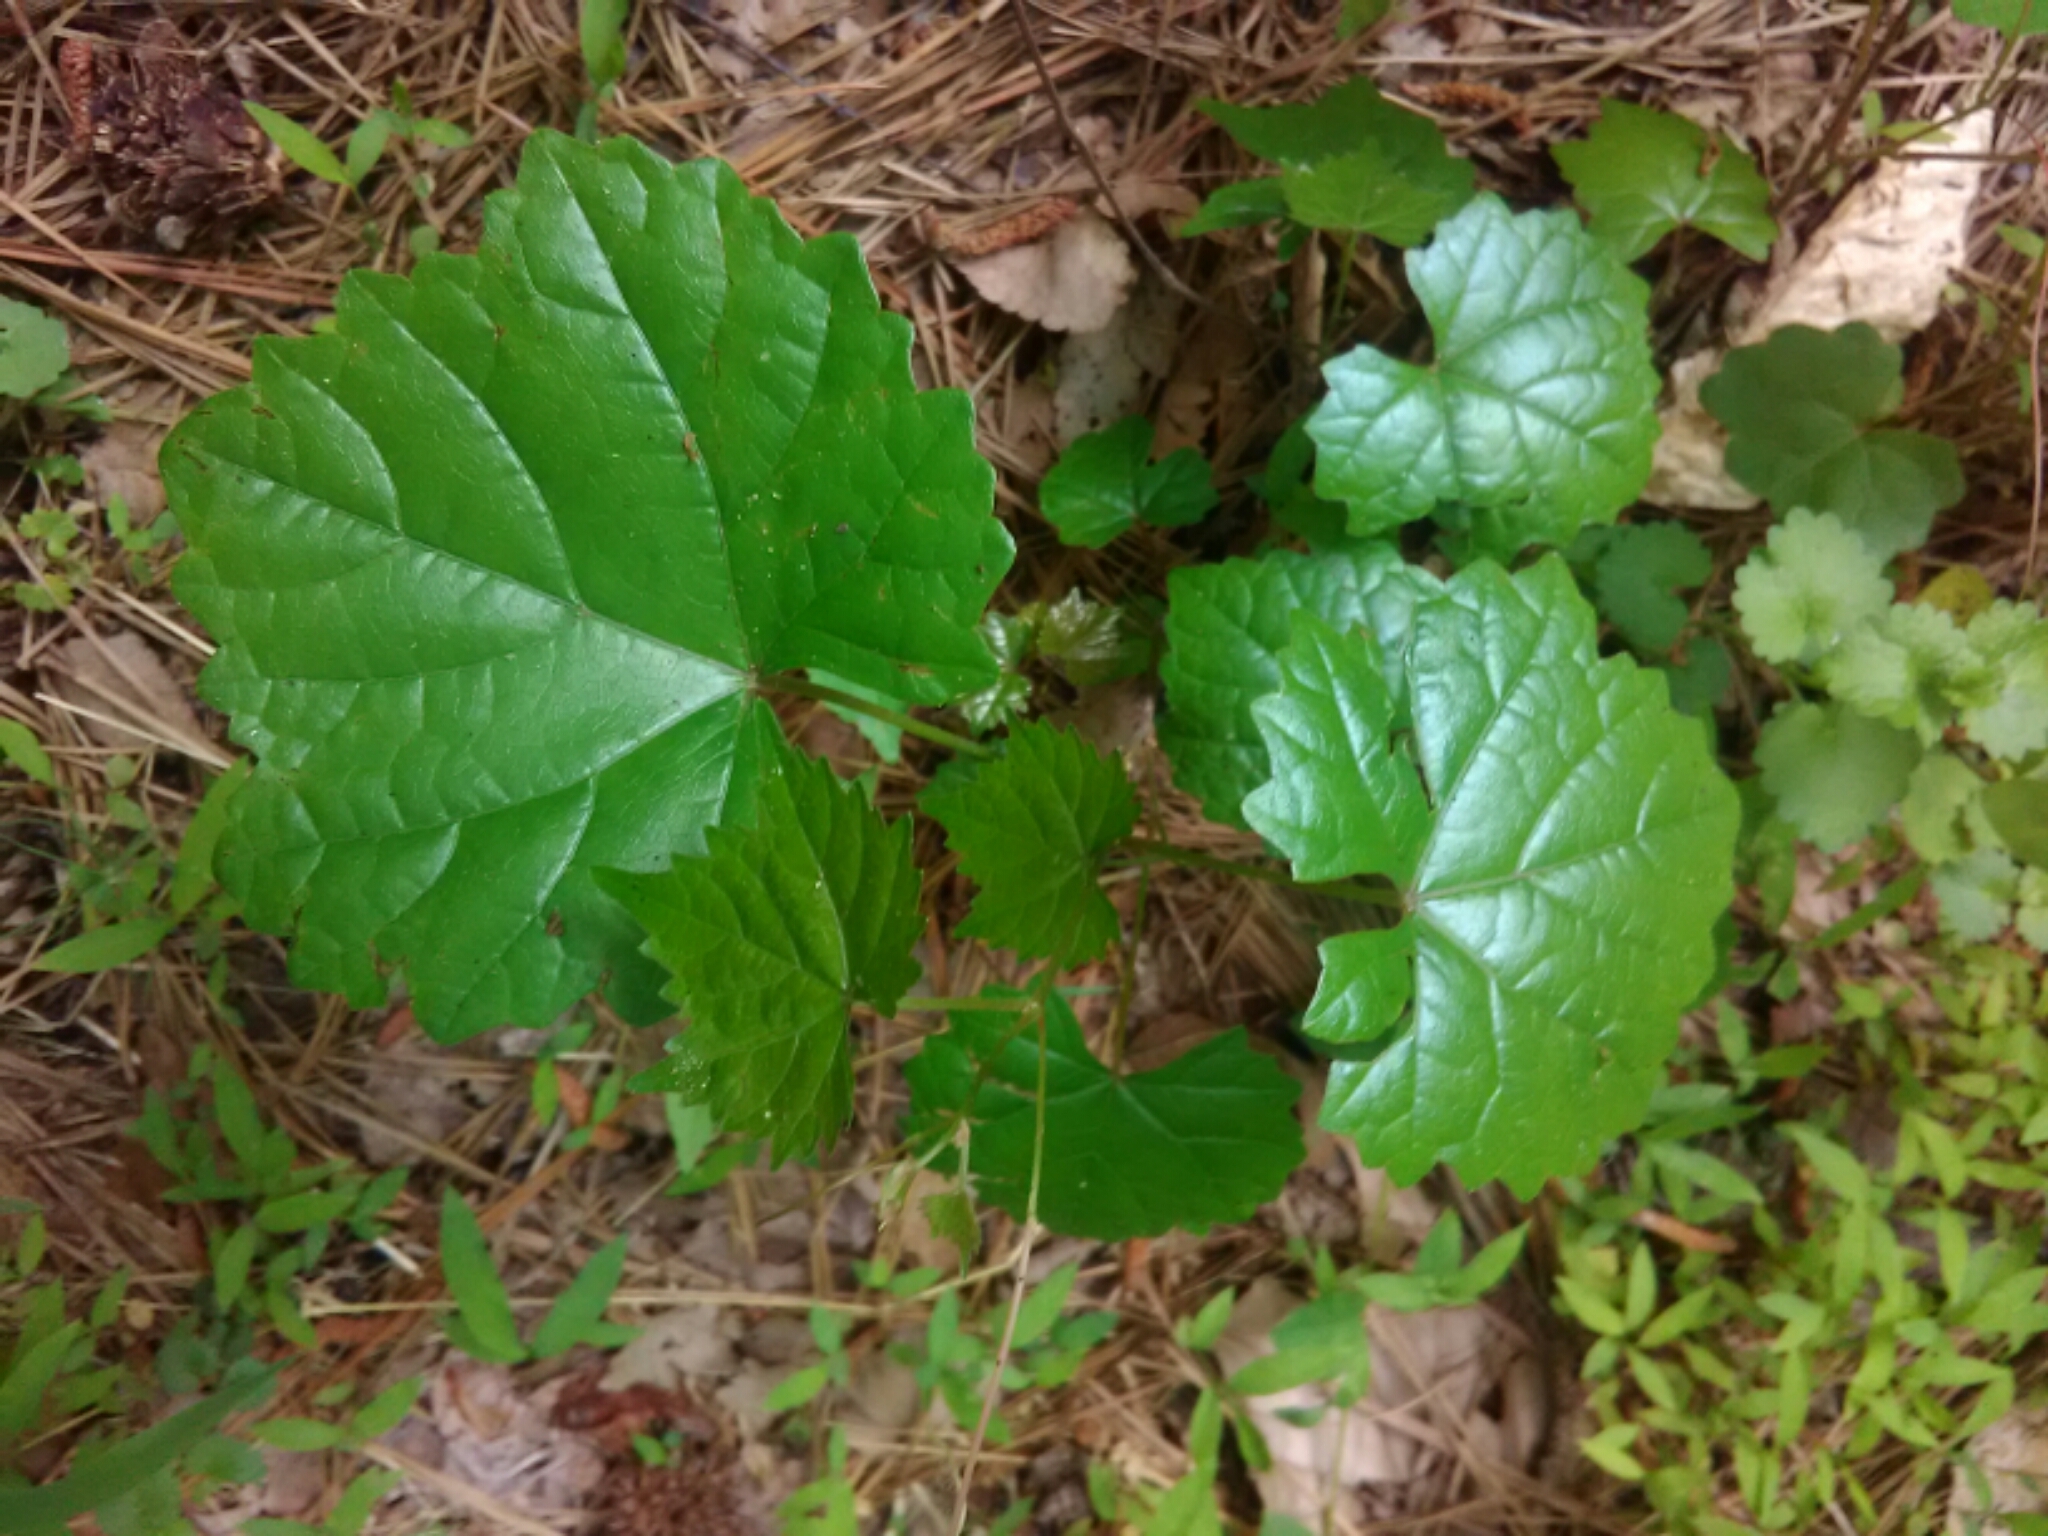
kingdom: Plantae
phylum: Tracheophyta
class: Magnoliopsida
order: Vitales
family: Vitaceae
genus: Vitis
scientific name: Vitis rotundifolia
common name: Muscadine grape
